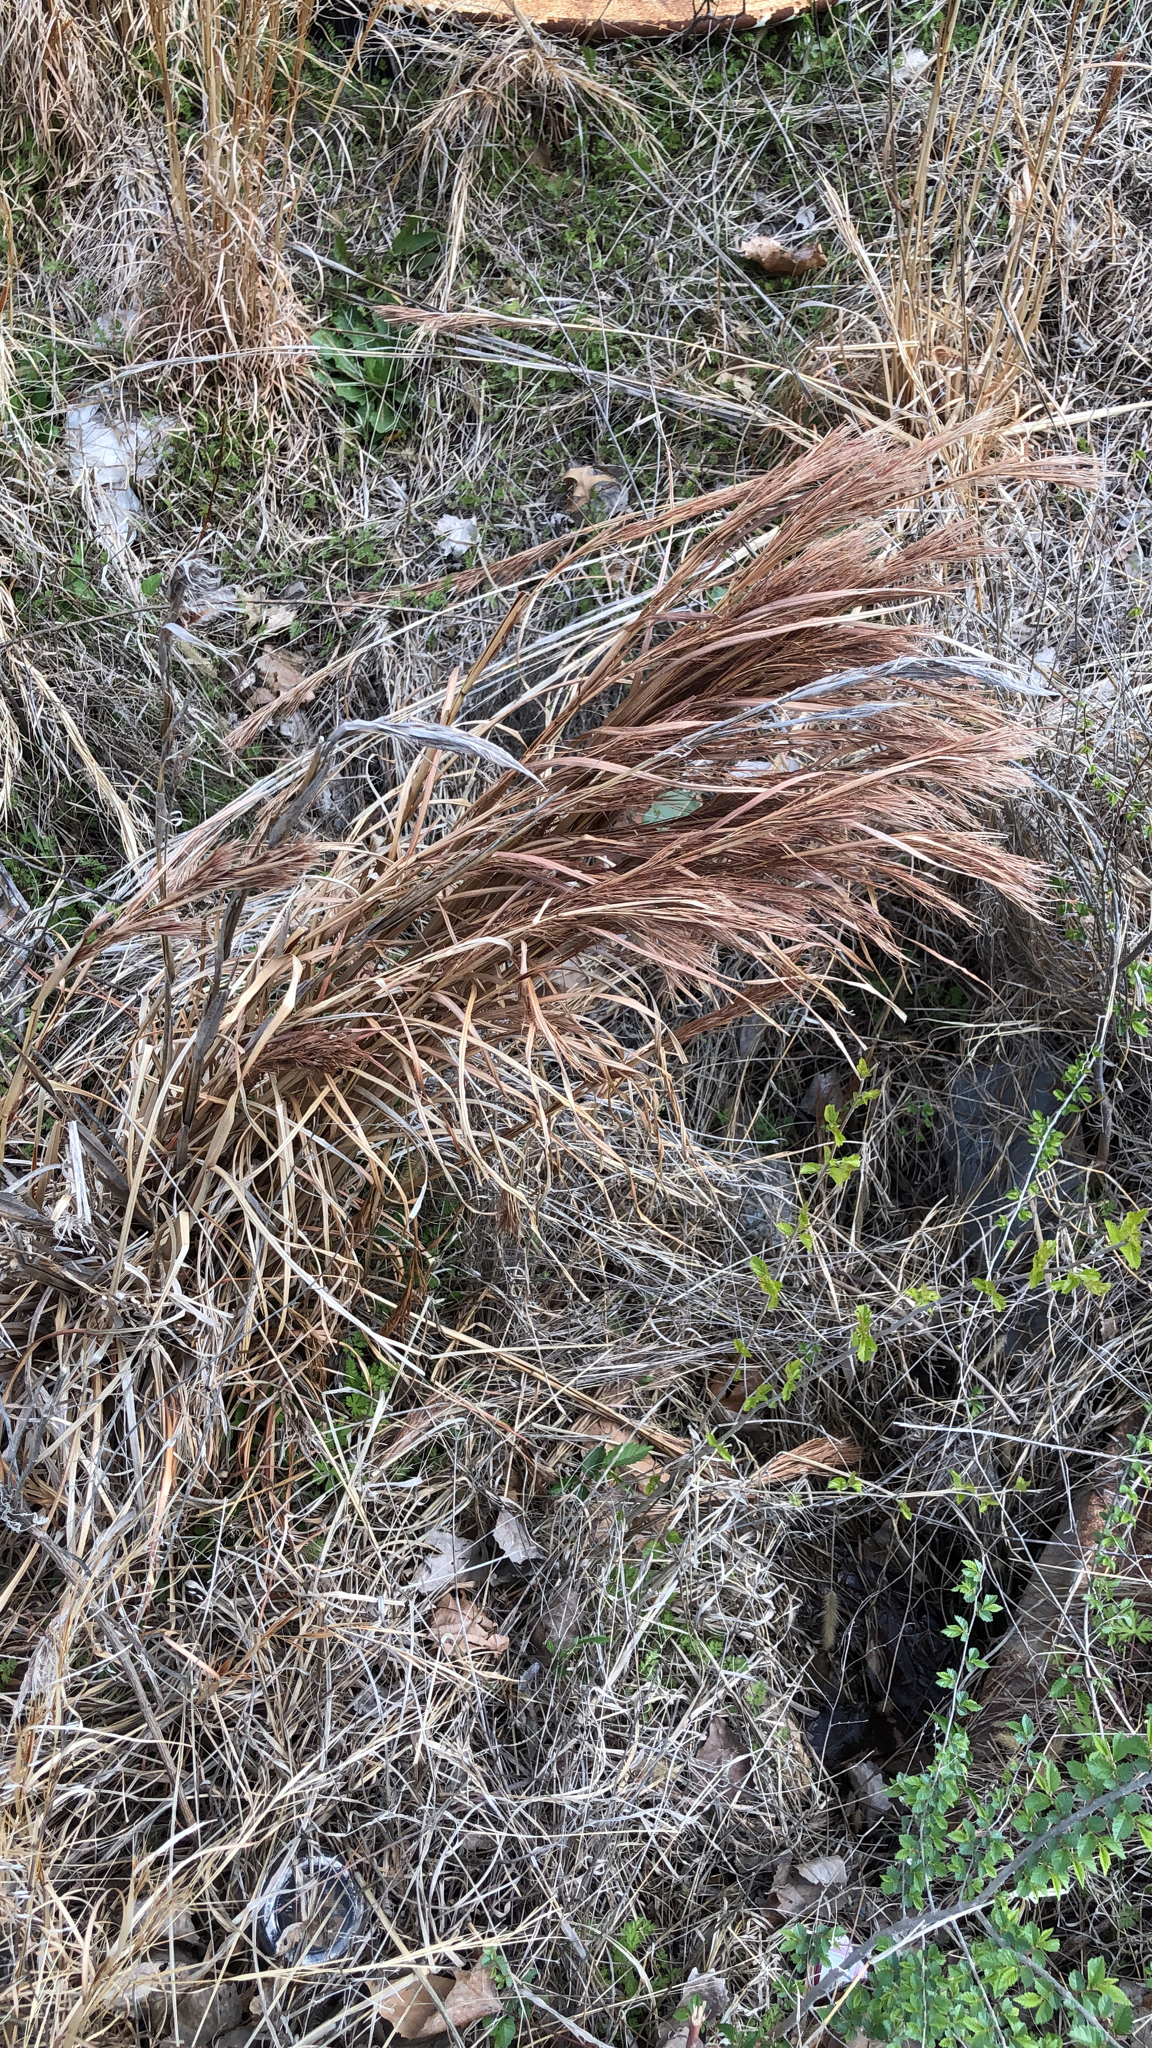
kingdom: Plantae
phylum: Tracheophyta
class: Liliopsida
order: Poales
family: Poaceae
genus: Andropogon
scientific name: Andropogon tenuispatheus
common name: Bushy bluestem
